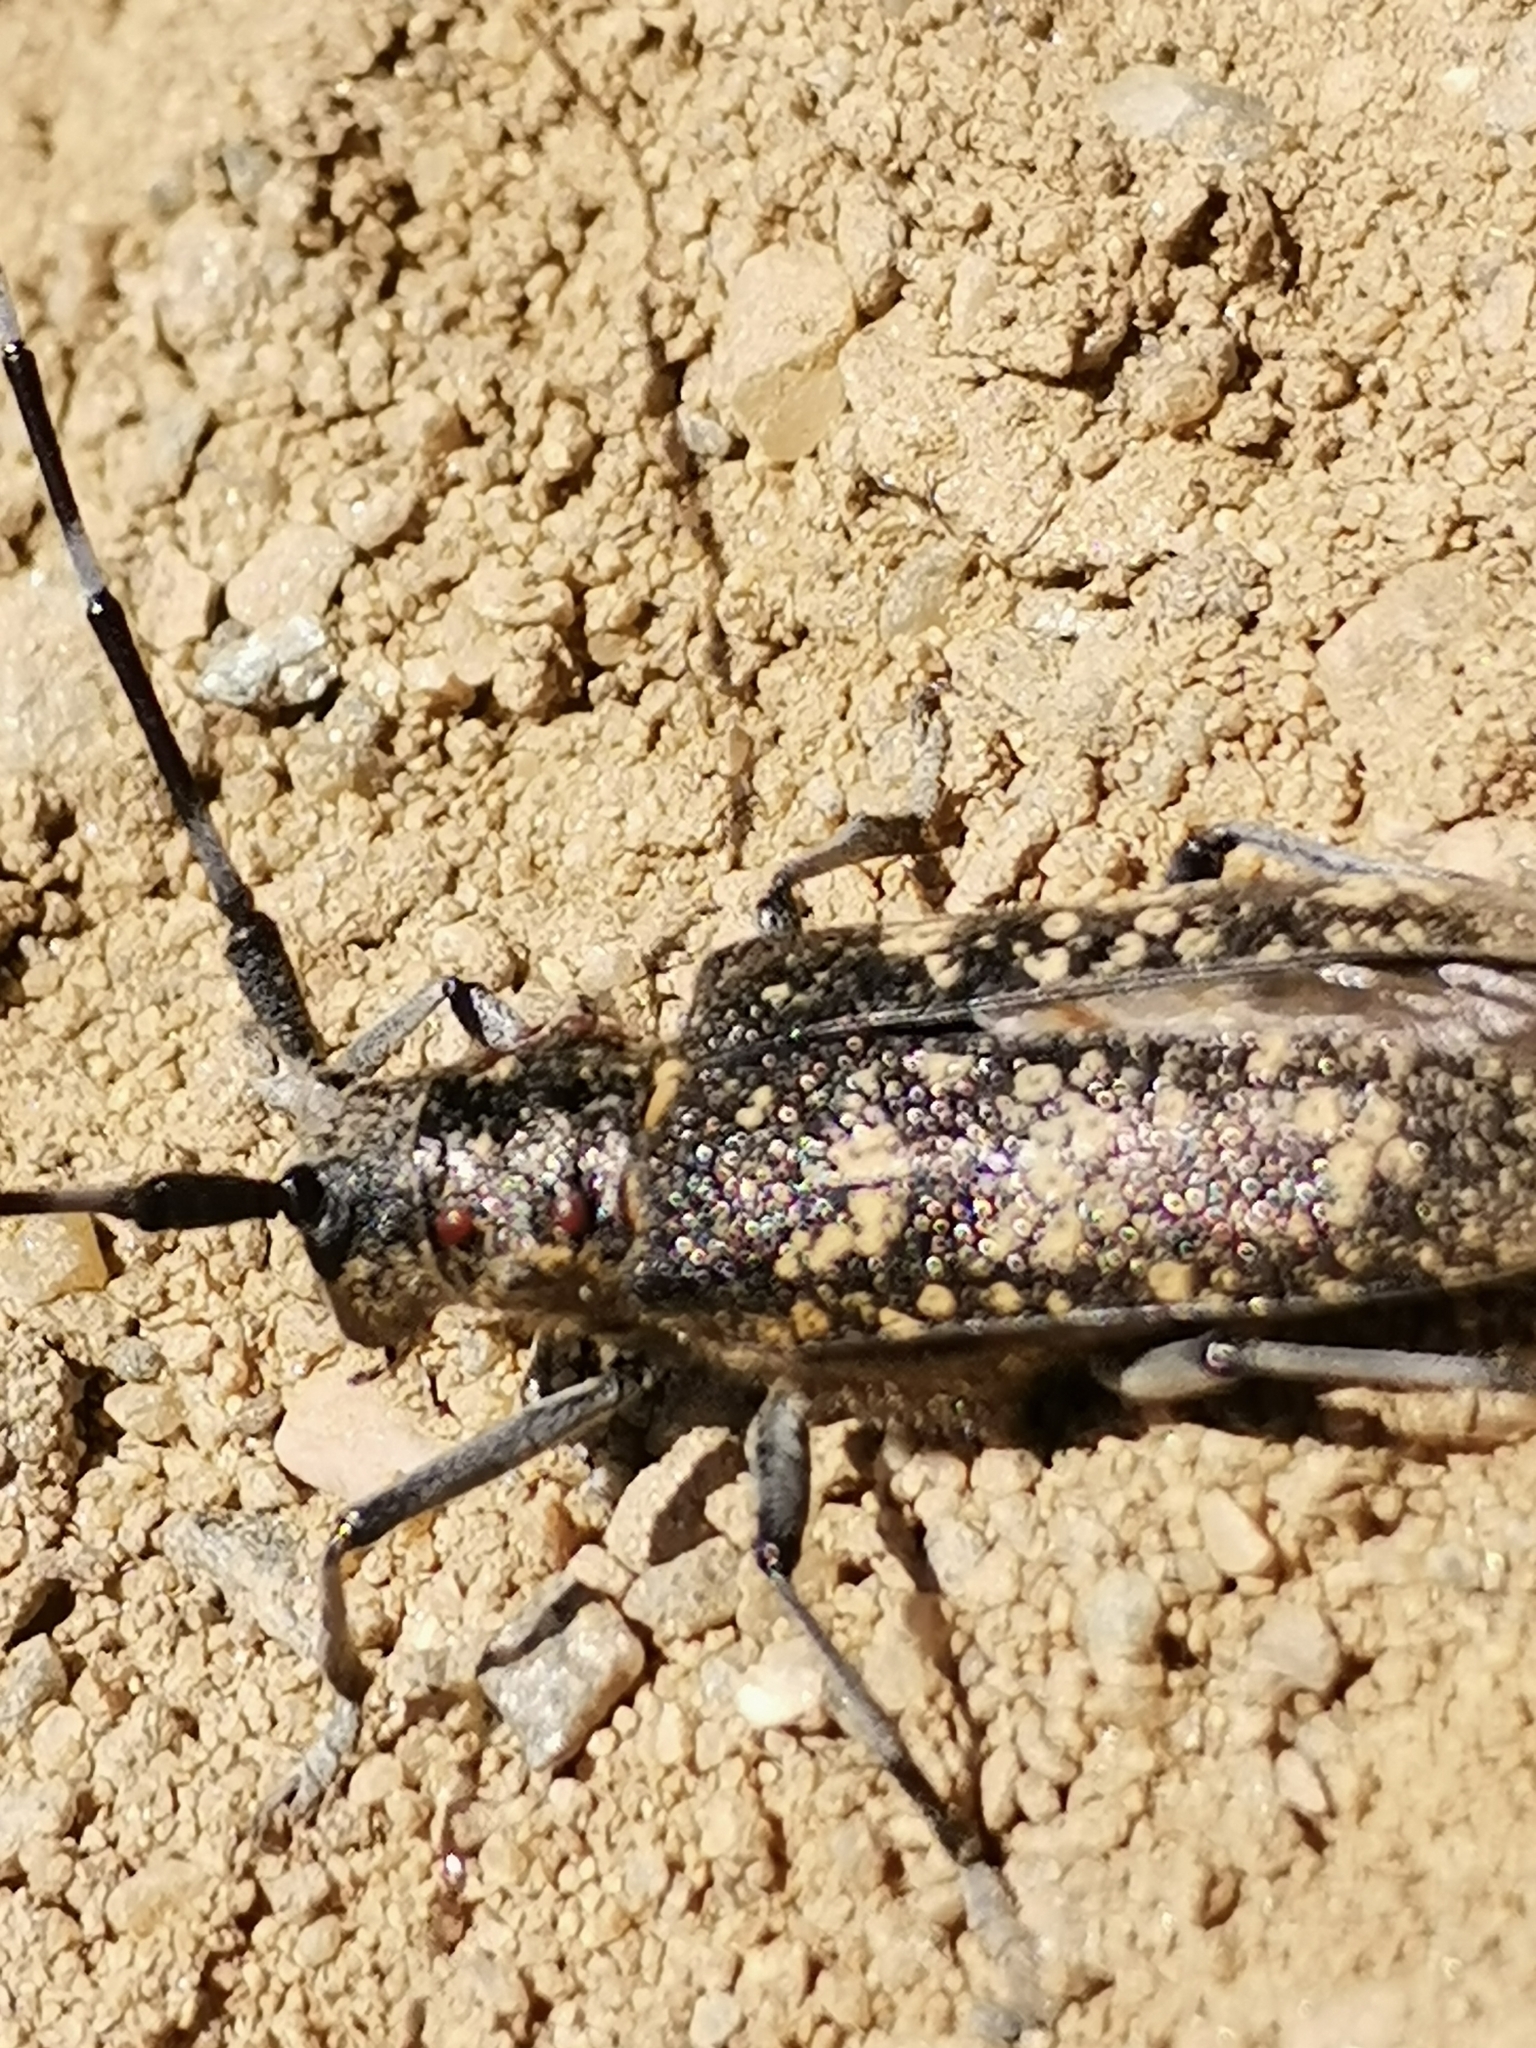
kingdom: Animalia
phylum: Arthropoda
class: Insecta
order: Coleoptera
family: Cerambycidae
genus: Monochamus
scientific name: Monochamus sutor
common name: Pine sawyer
